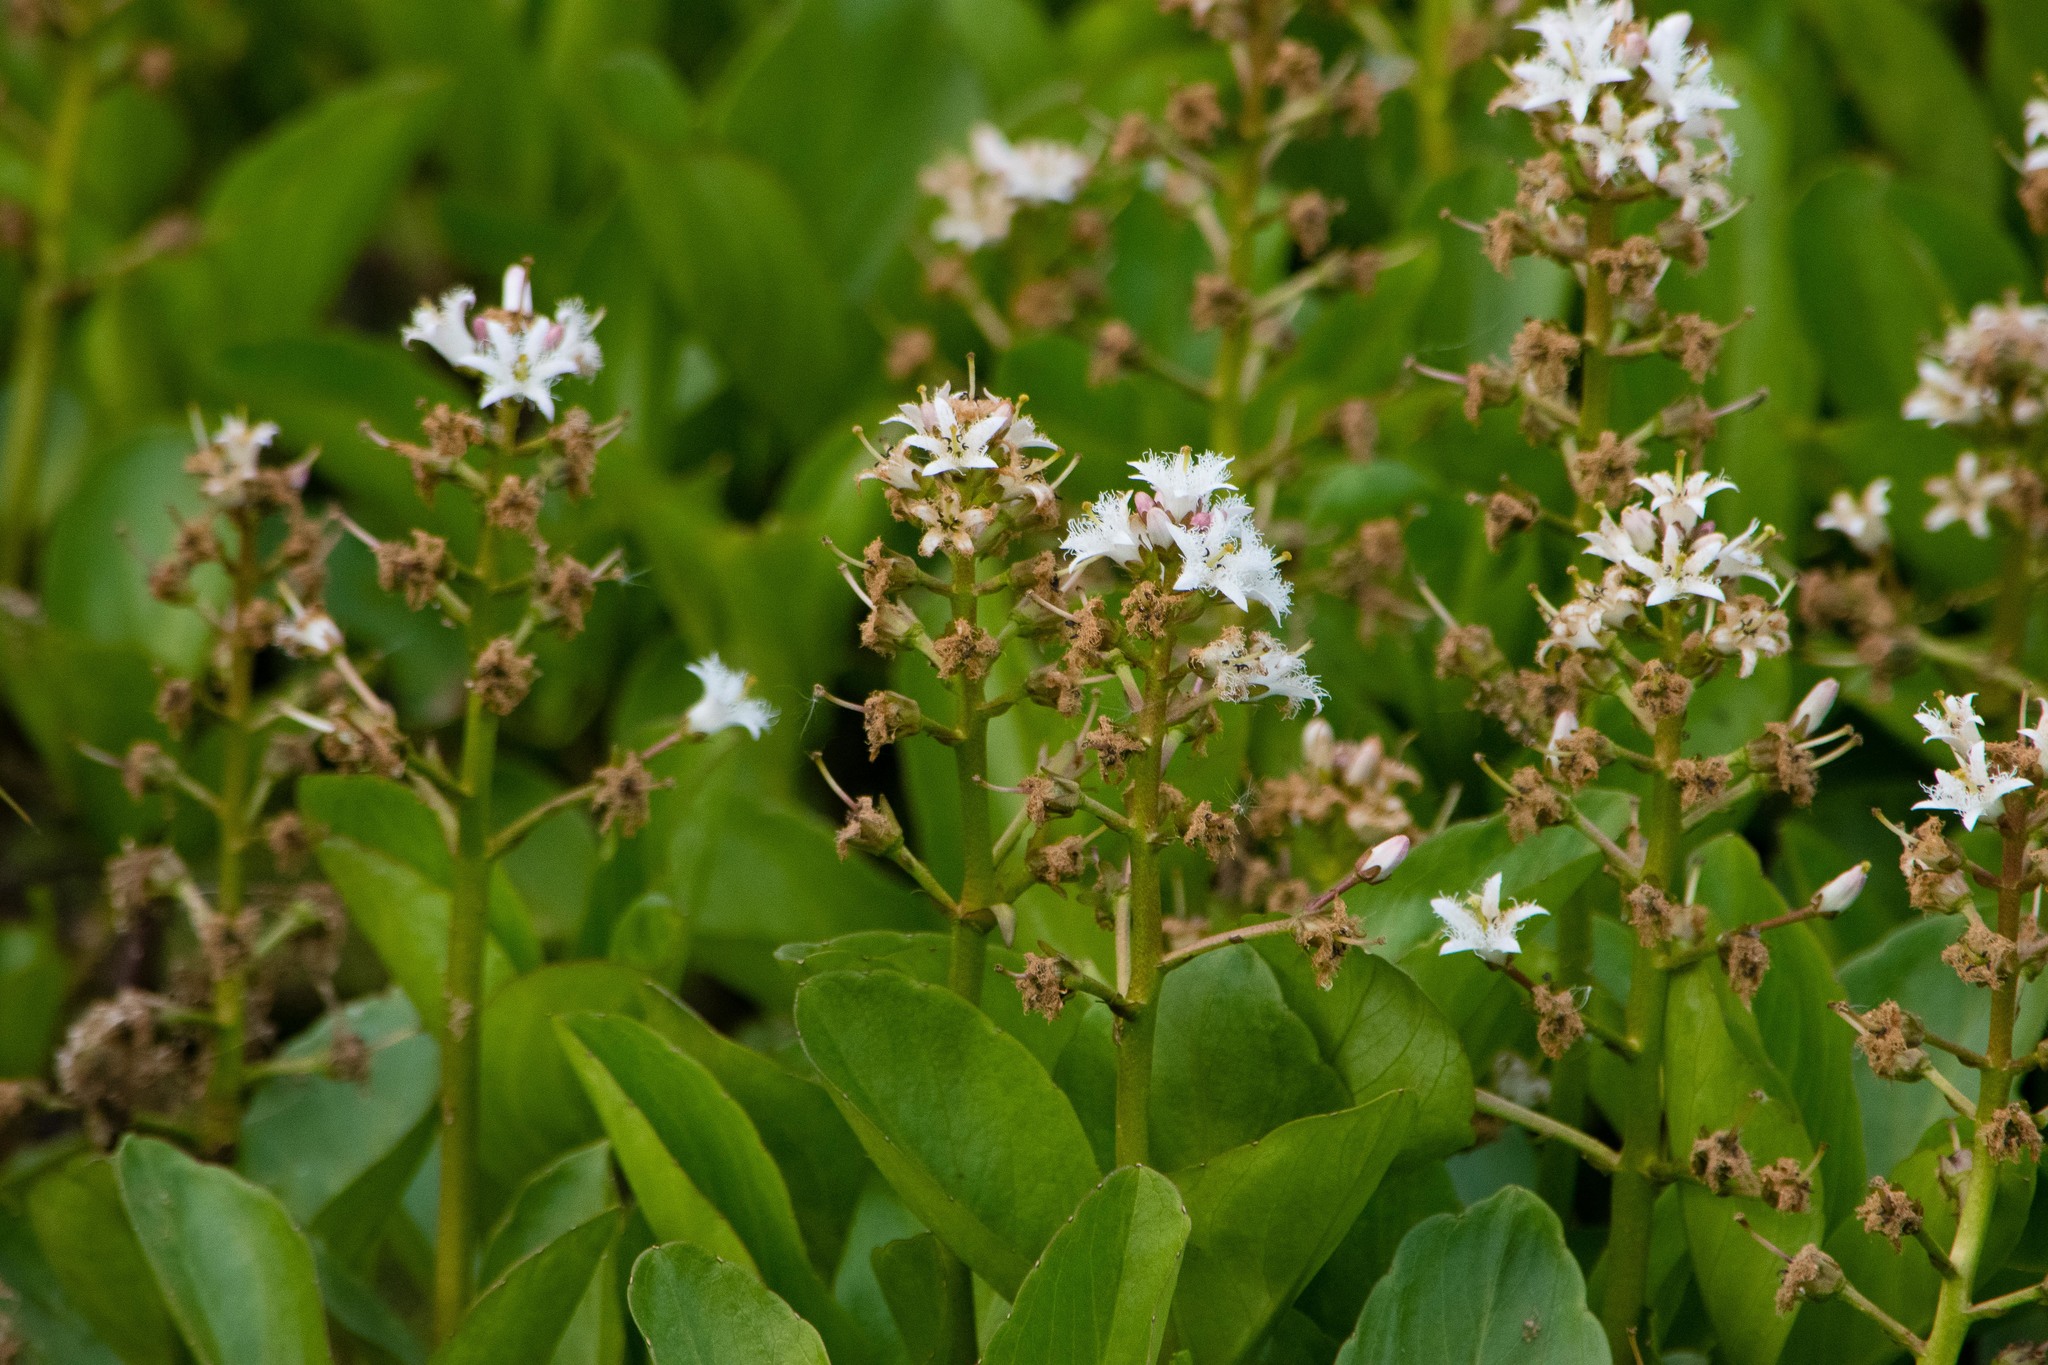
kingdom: Plantae
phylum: Tracheophyta
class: Magnoliopsida
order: Asterales
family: Menyanthaceae
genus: Menyanthes
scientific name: Menyanthes trifoliata
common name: Bogbean
